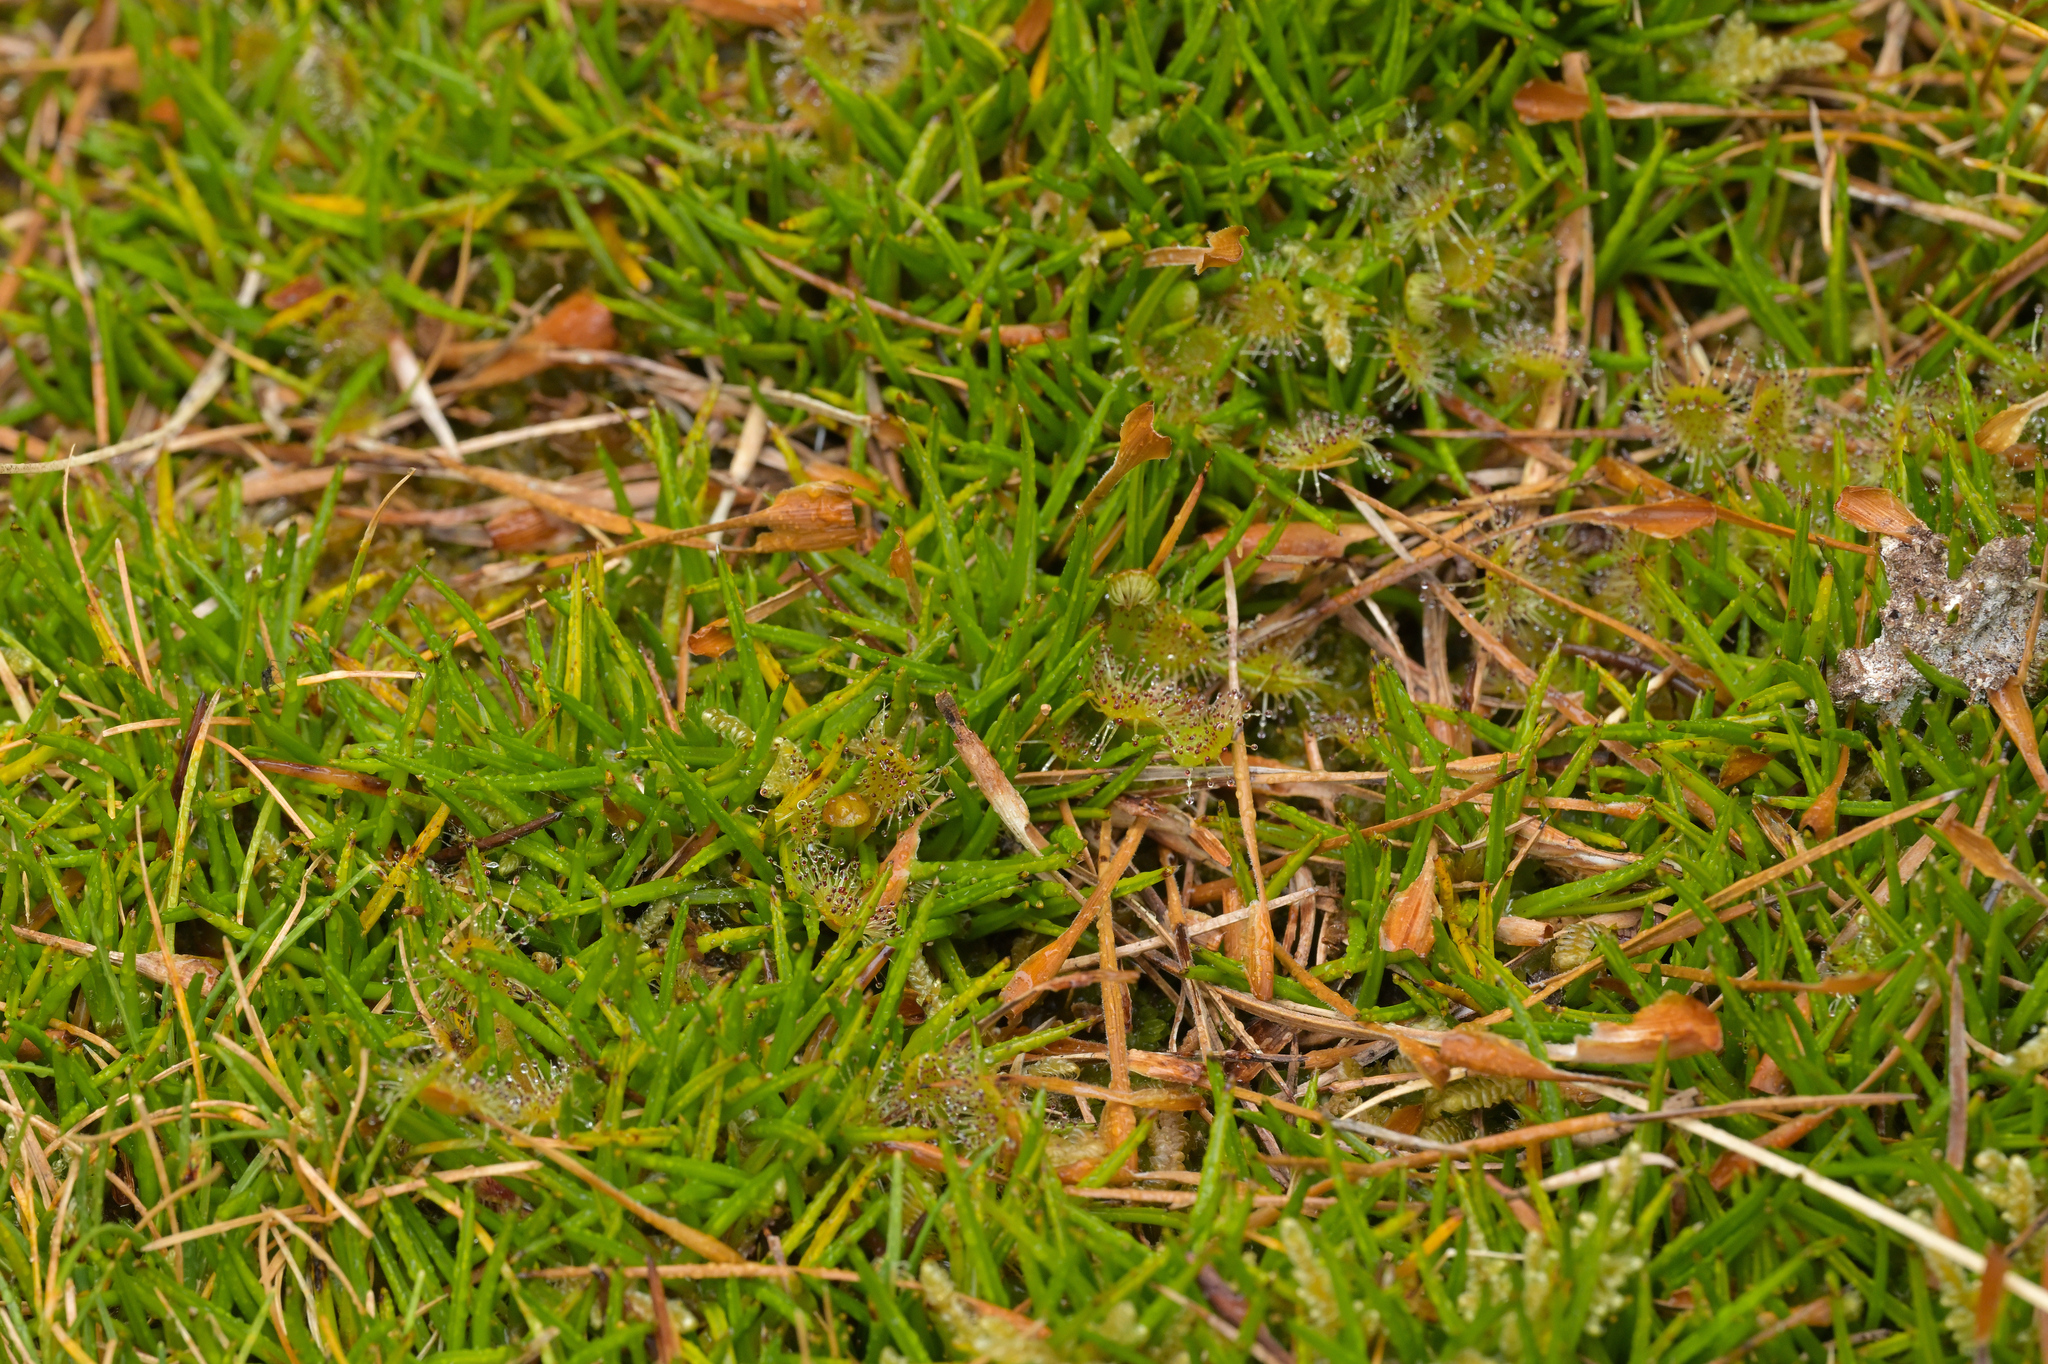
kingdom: Plantae
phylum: Tracheophyta
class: Magnoliopsida
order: Caryophyllales
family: Droseraceae
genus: Drosera
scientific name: Drosera stenopetala
